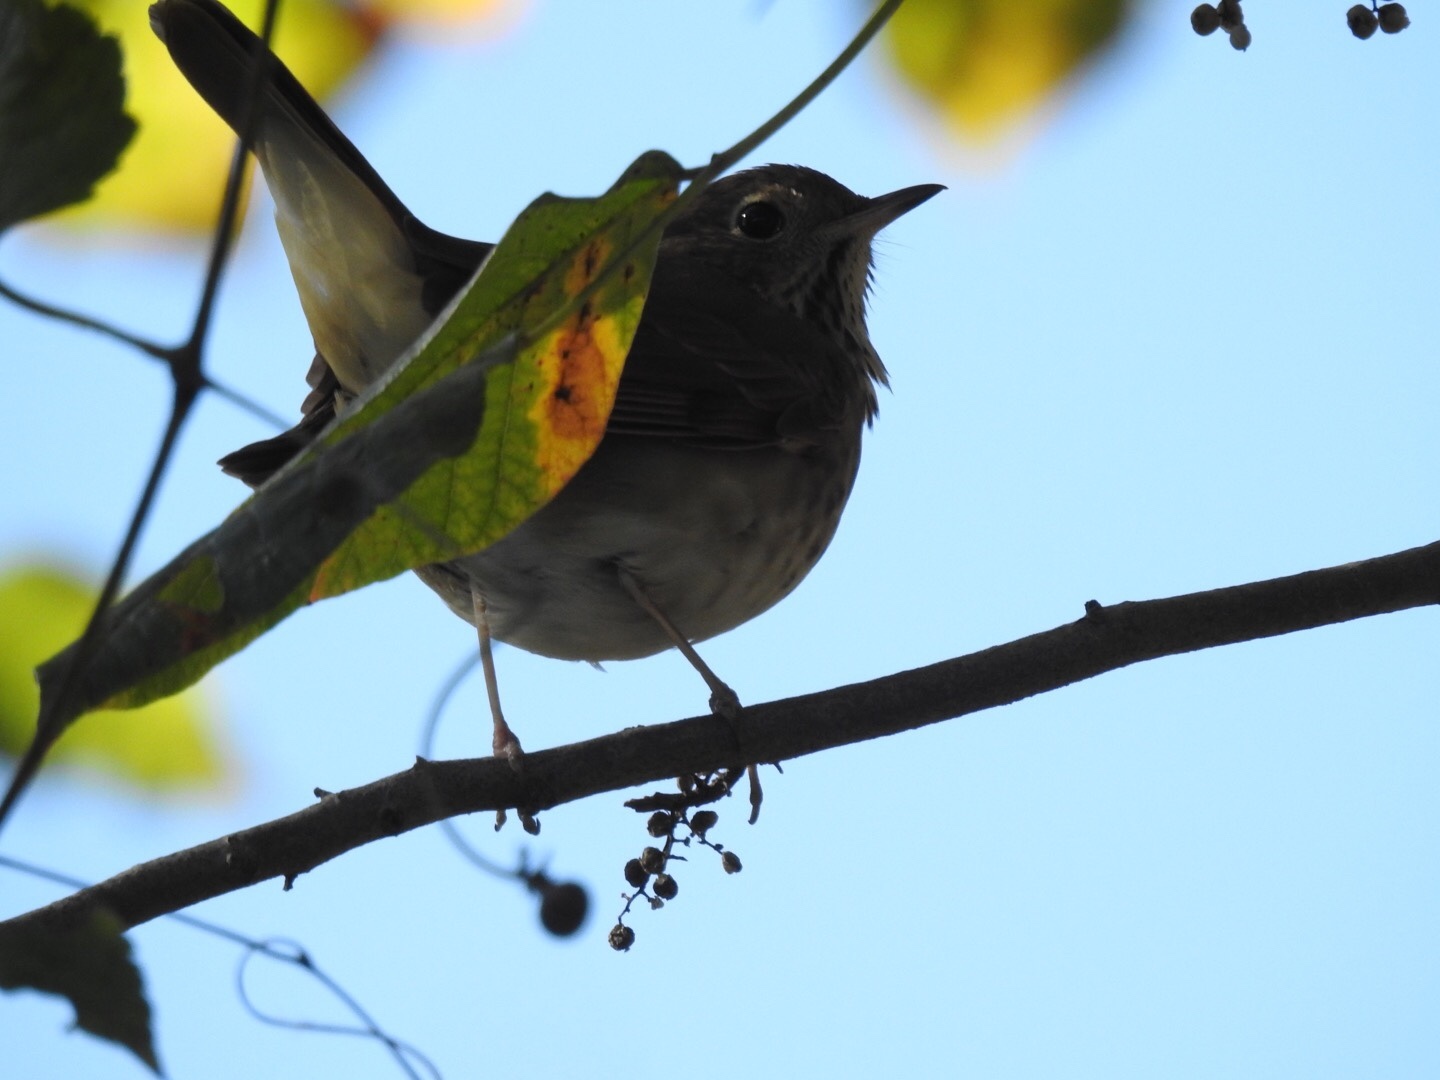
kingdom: Animalia
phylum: Chordata
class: Aves
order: Passeriformes
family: Turdidae
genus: Catharus
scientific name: Catharus guttatus
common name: Hermit thrush
